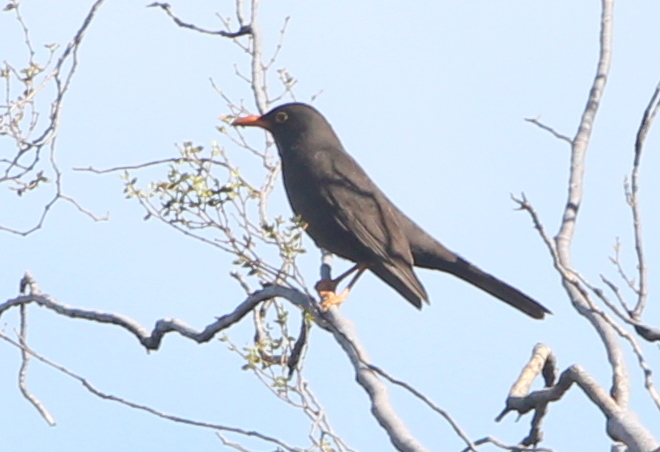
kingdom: Animalia
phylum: Chordata
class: Aves
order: Passeriformes
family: Turdidae
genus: Turdus
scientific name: Turdus chiguanco
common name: Chiguanco thrush
